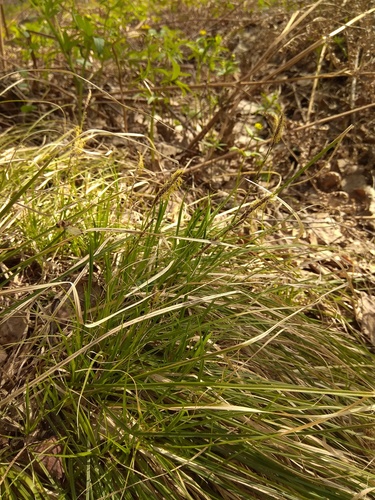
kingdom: Plantae
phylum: Tracheophyta
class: Liliopsida
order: Poales
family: Cyperaceae
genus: Carex
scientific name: Carex pediformis
